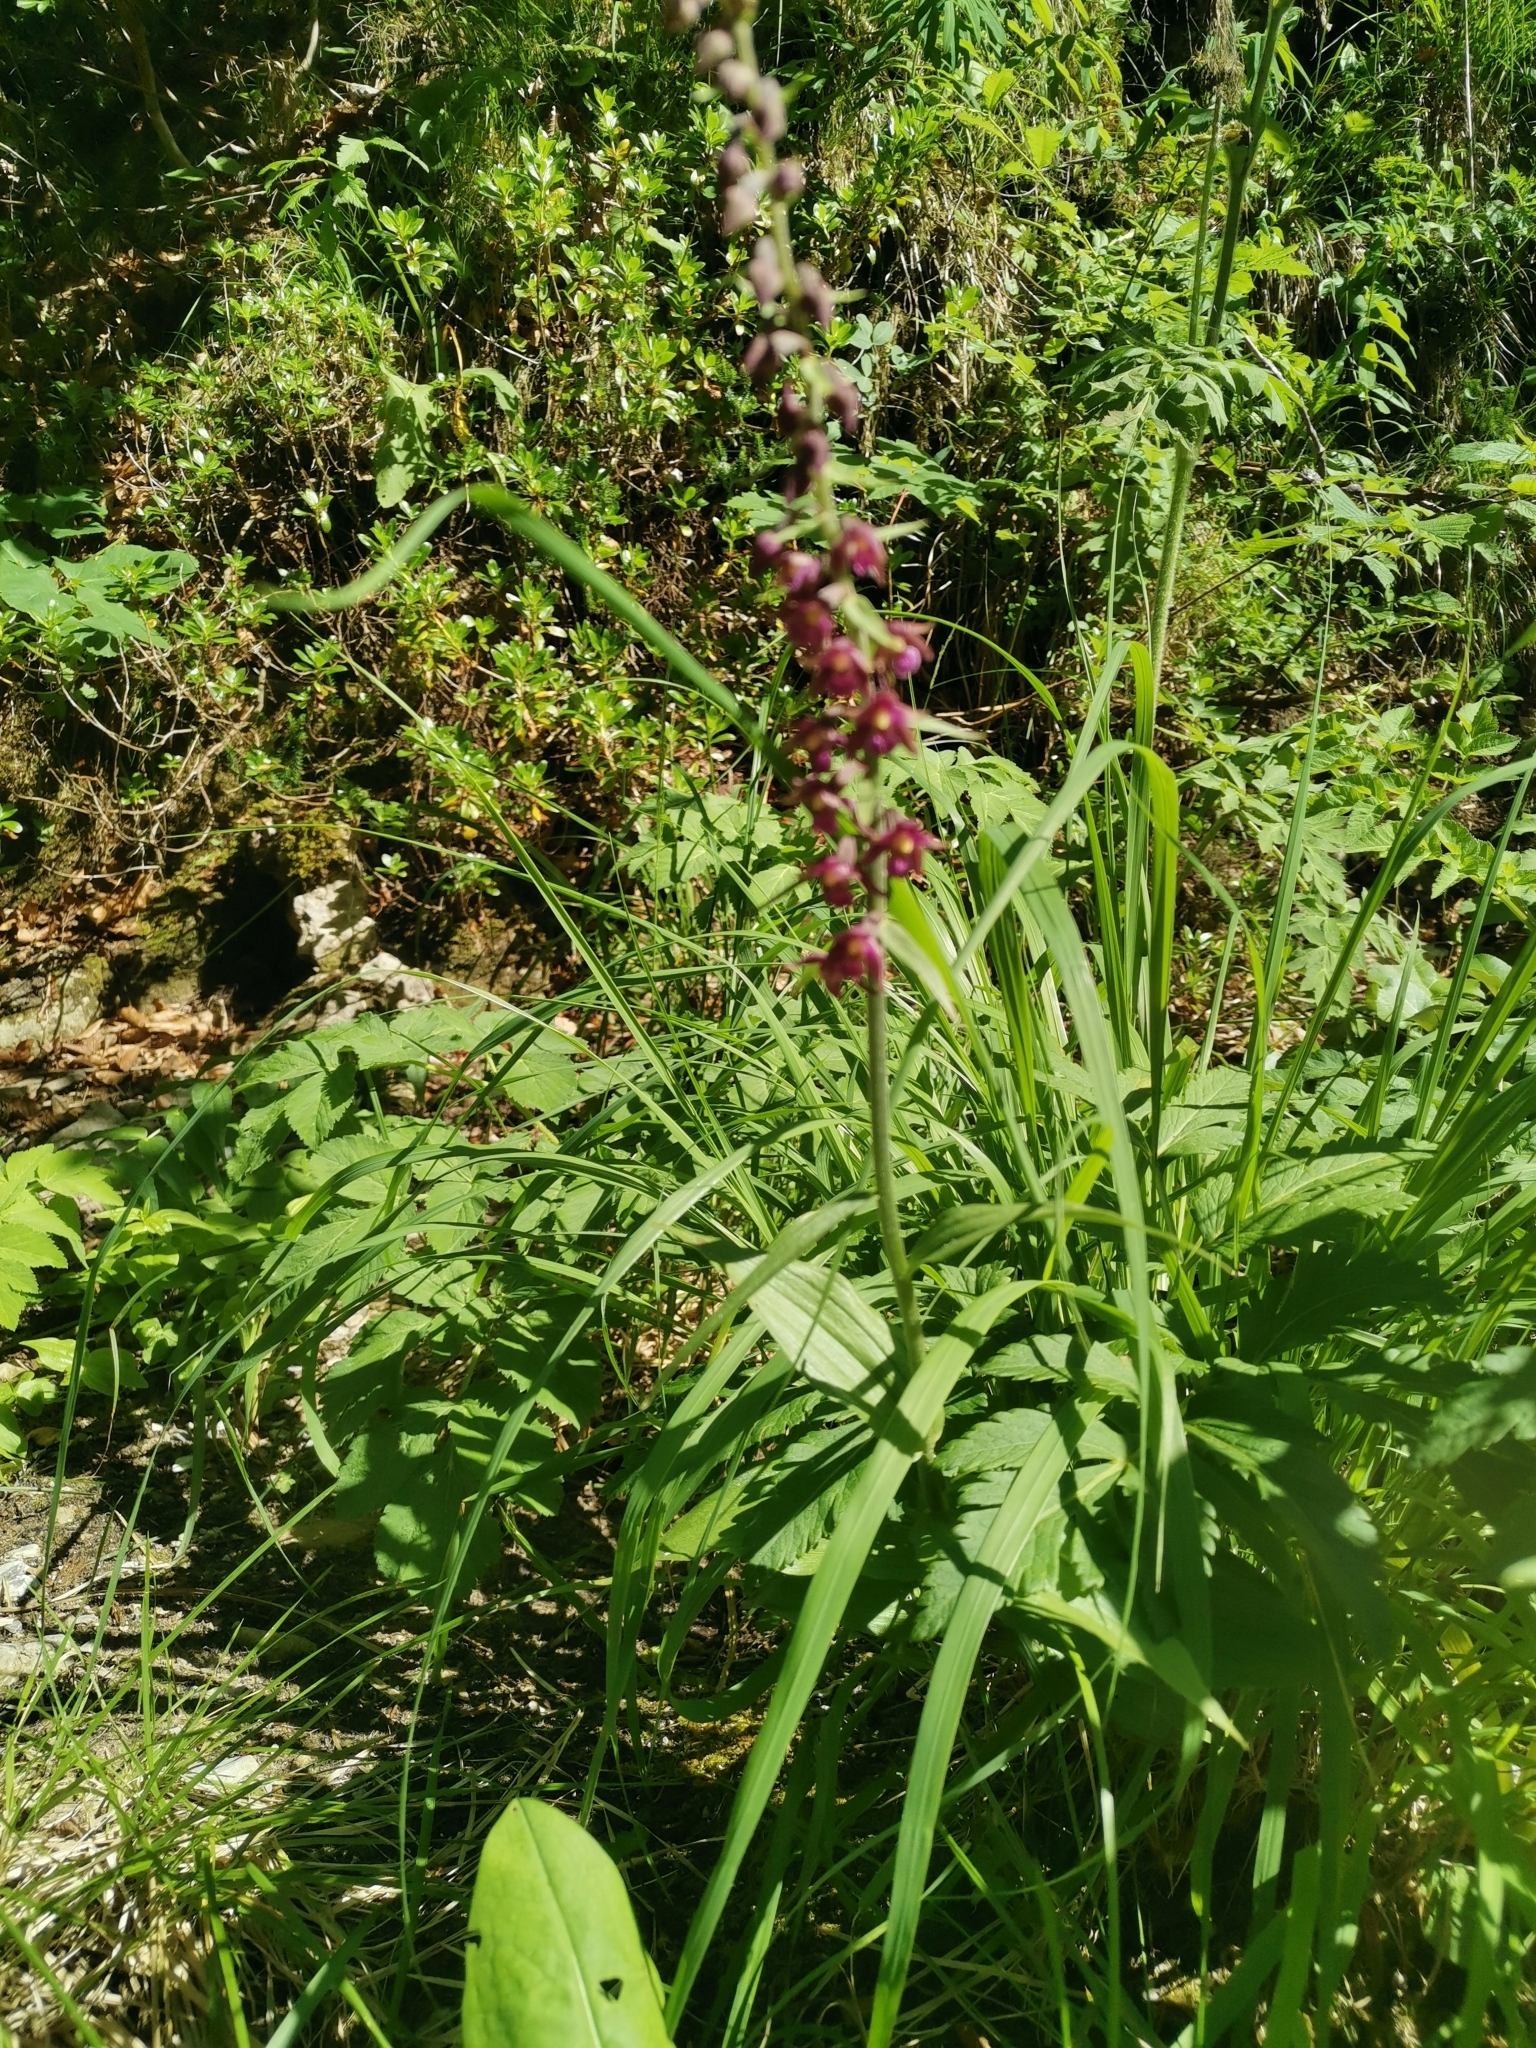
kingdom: Plantae
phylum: Tracheophyta
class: Liliopsida
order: Asparagales
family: Orchidaceae
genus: Epipactis
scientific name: Epipactis atrorubens
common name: Dark-red helleborine
